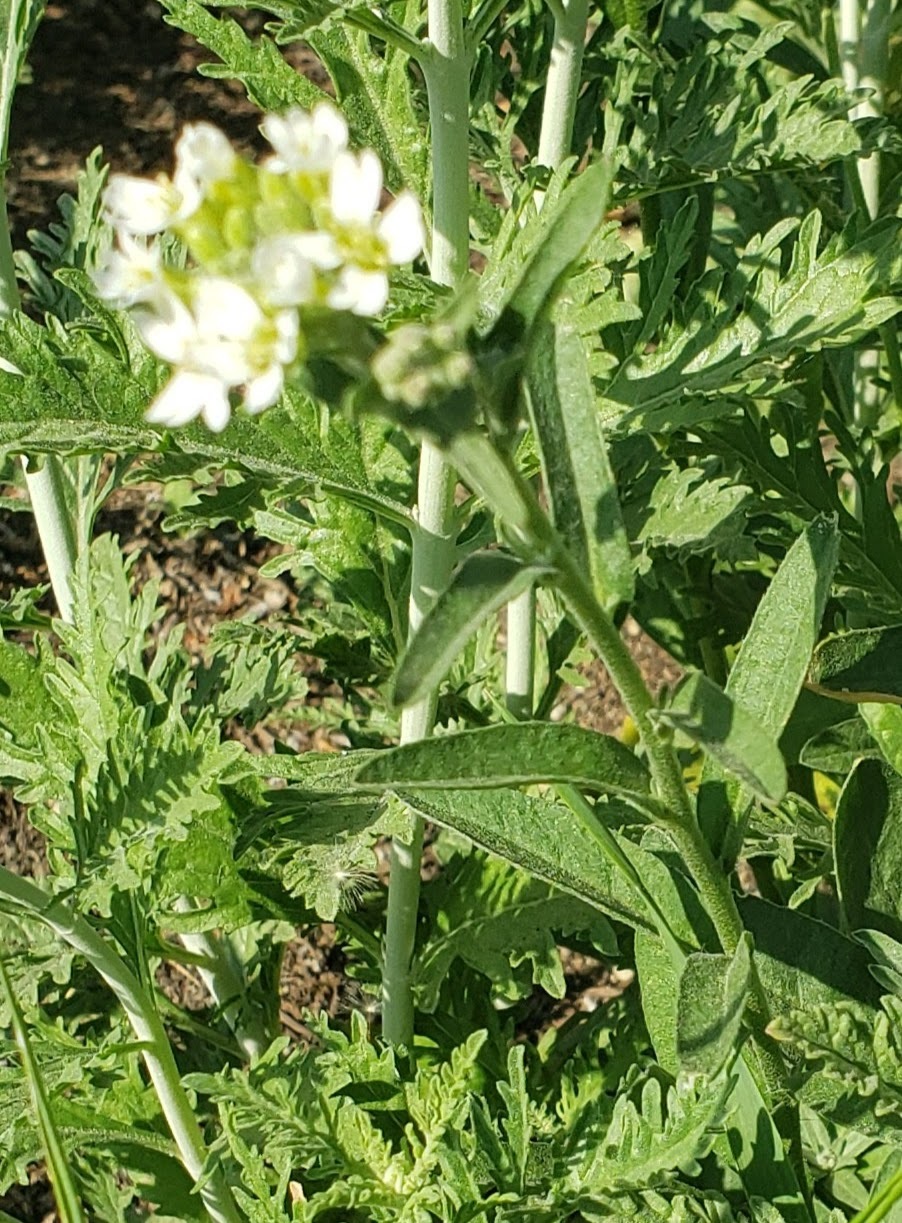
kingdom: Plantae
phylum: Tracheophyta
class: Magnoliopsida
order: Brassicales
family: Brassicaceae
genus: Berteroa
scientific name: Berteroa incana
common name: Hoary alison
